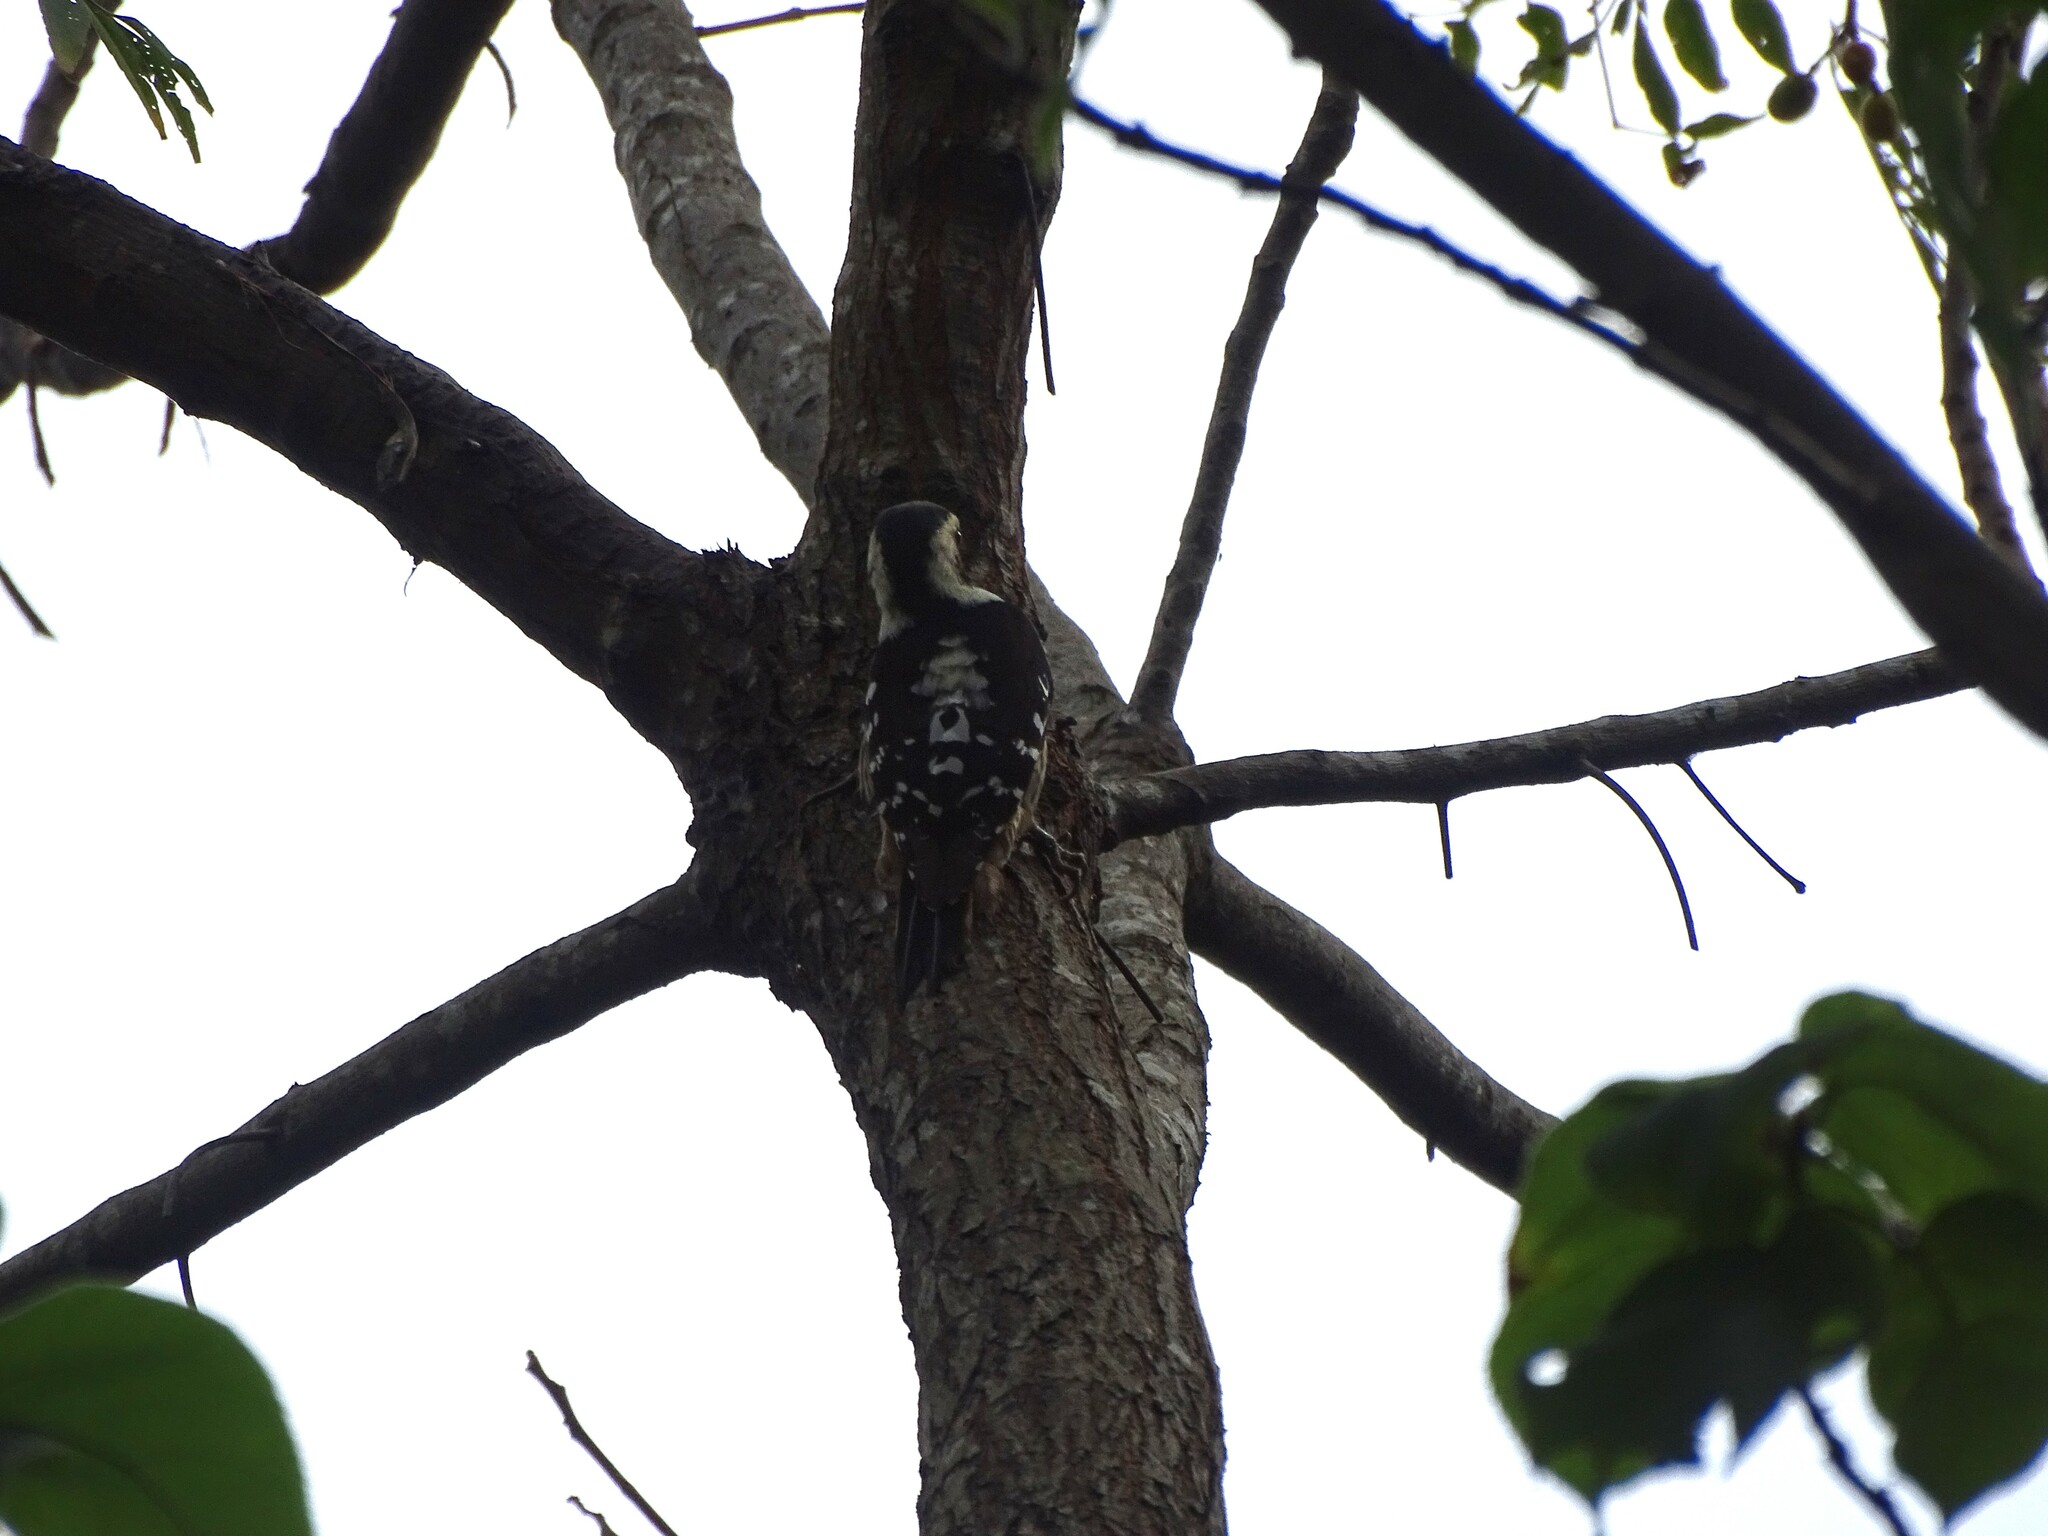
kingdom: Animalia
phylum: Chordata
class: Aves
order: Piciformes
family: Picidae
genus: Yungipicus
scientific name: Yungipicus canicapillus
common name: Grey-capped pygmy woodpecker
